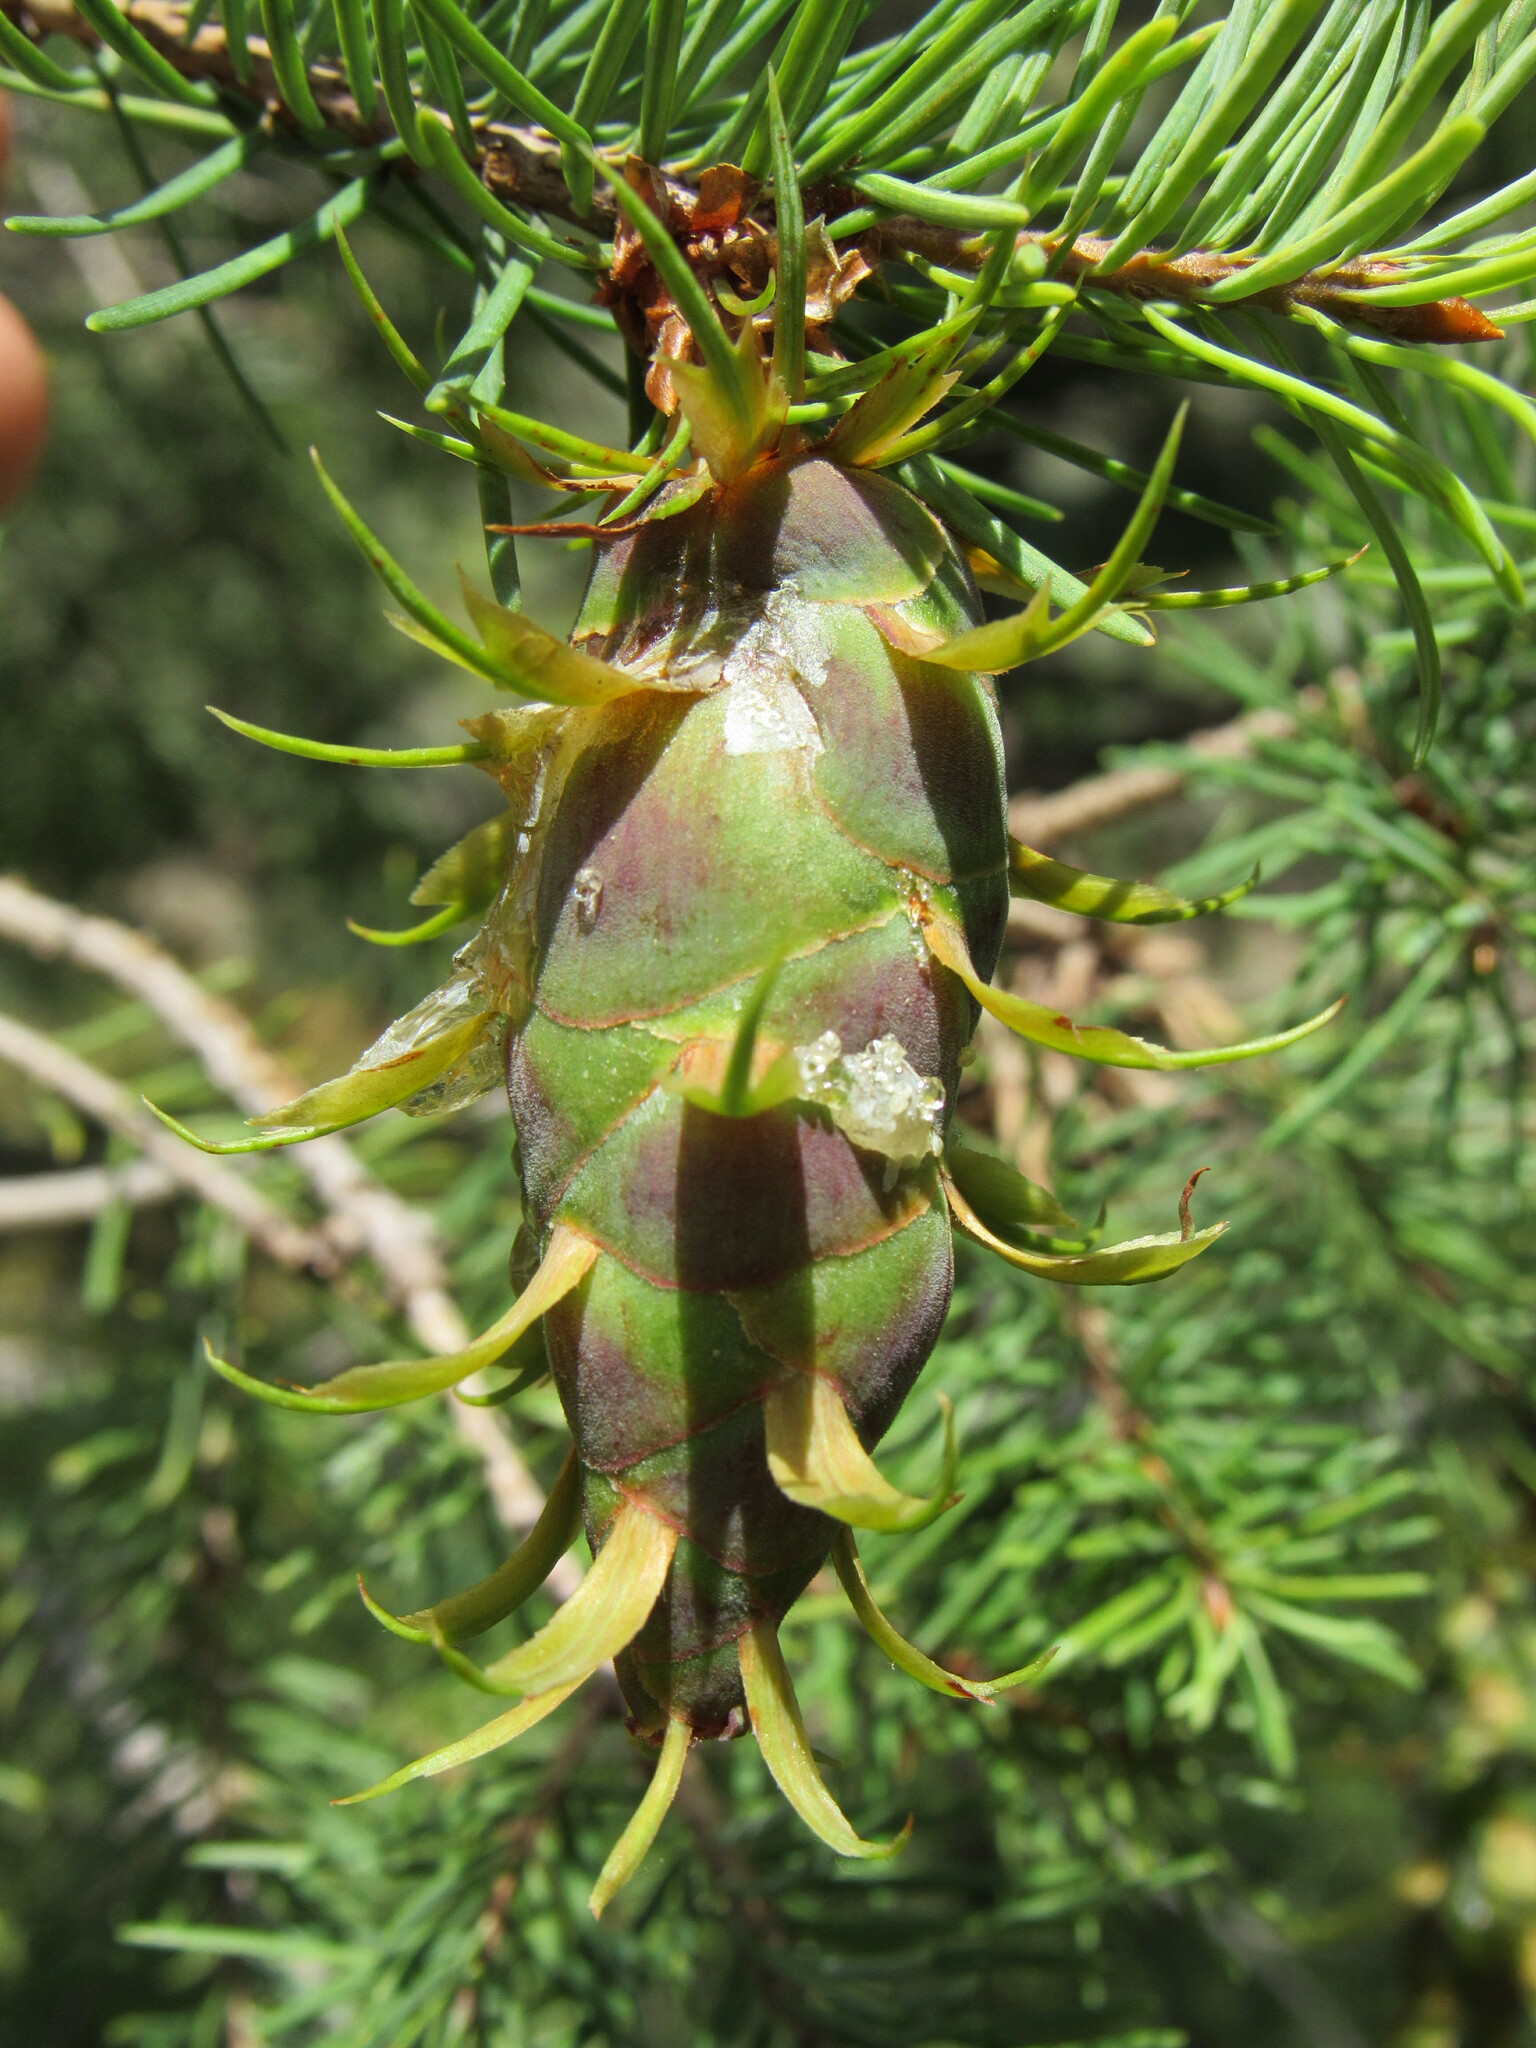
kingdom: Plantae
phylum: Tracheophyta
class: Pinopsida
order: Pinales
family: Pinaceae
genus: Pseudotsuga
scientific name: Pseudotsuga menziesii
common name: Douglas fir
